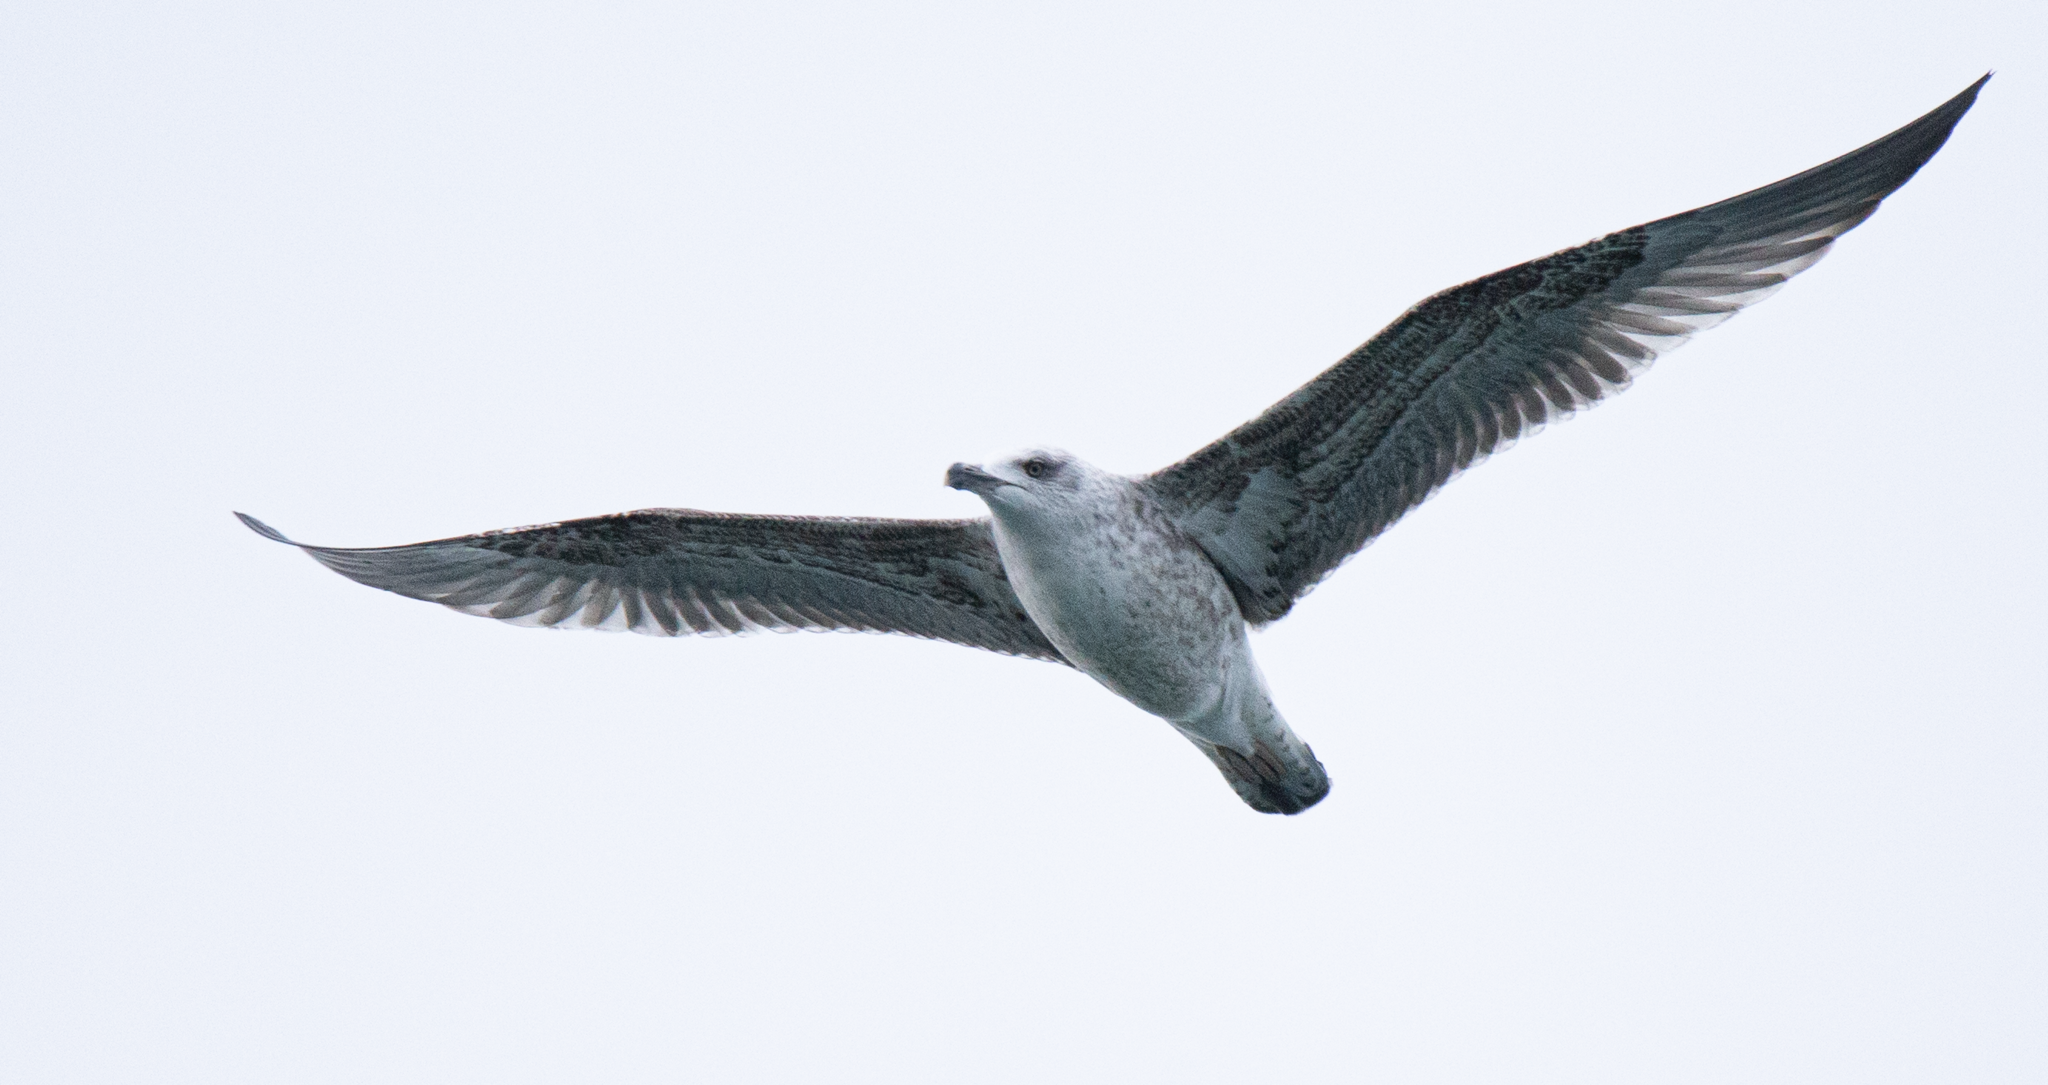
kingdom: Animalia
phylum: Chordata
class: Aves
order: Charadriiformes
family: Laridae
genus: Larus
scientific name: Larus michahellis
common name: Yellow-legged gull
